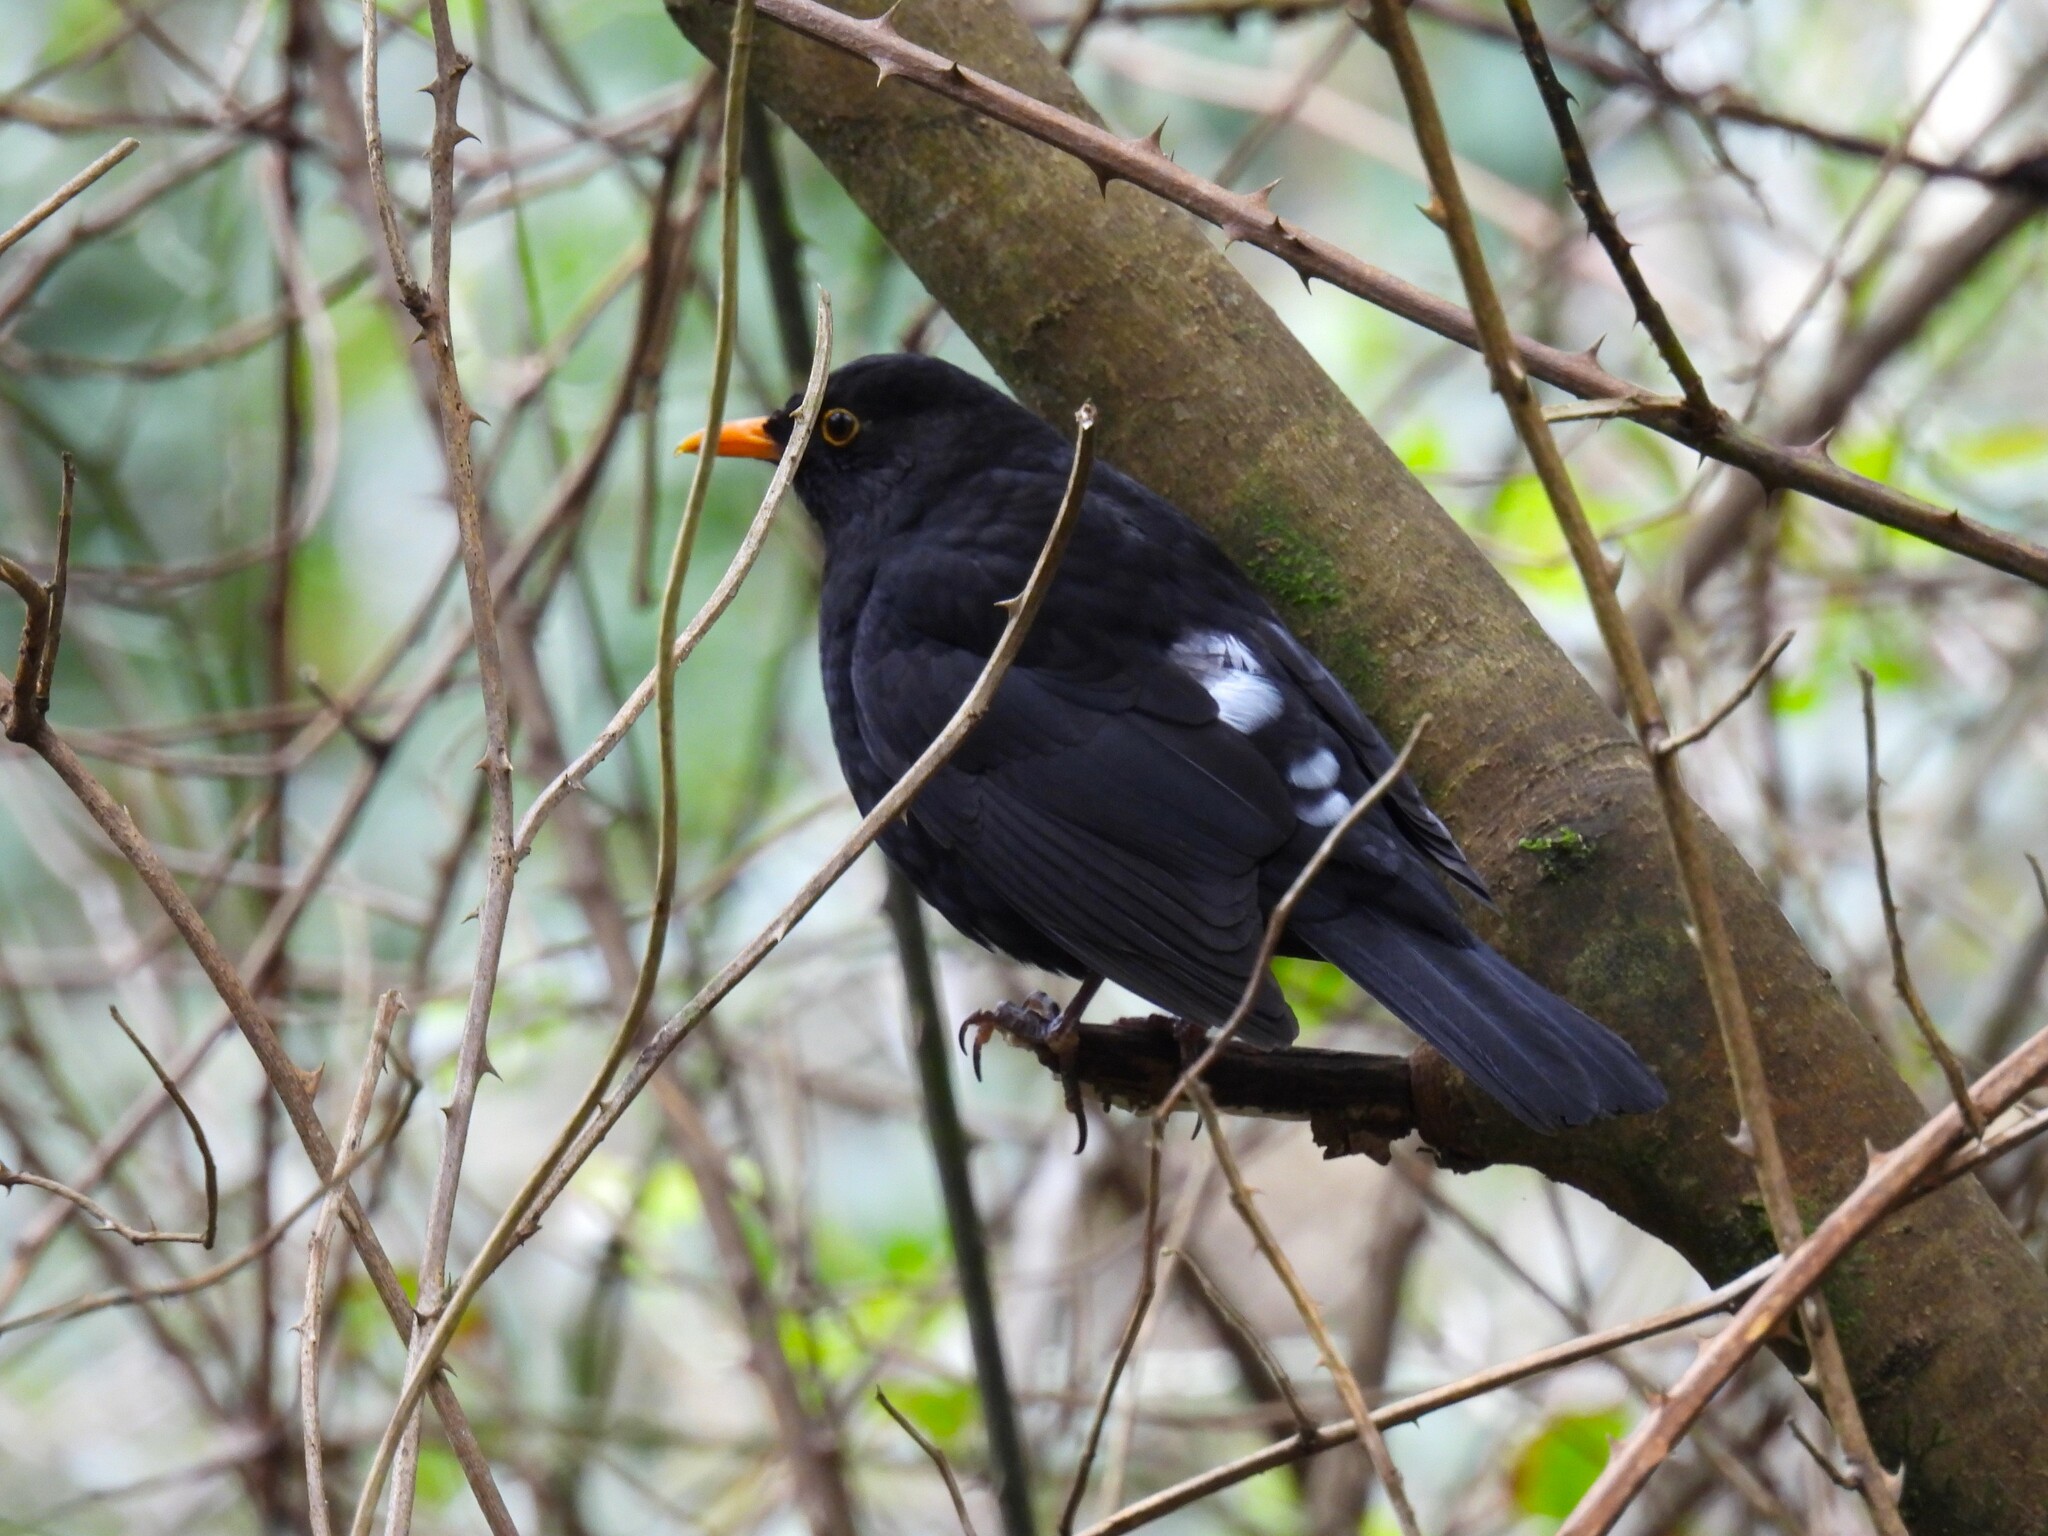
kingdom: Animalia
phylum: Chordata
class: Aves
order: Passeriformes
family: Turdidae
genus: Turdus
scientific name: Turdus merula
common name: Common blackbird
